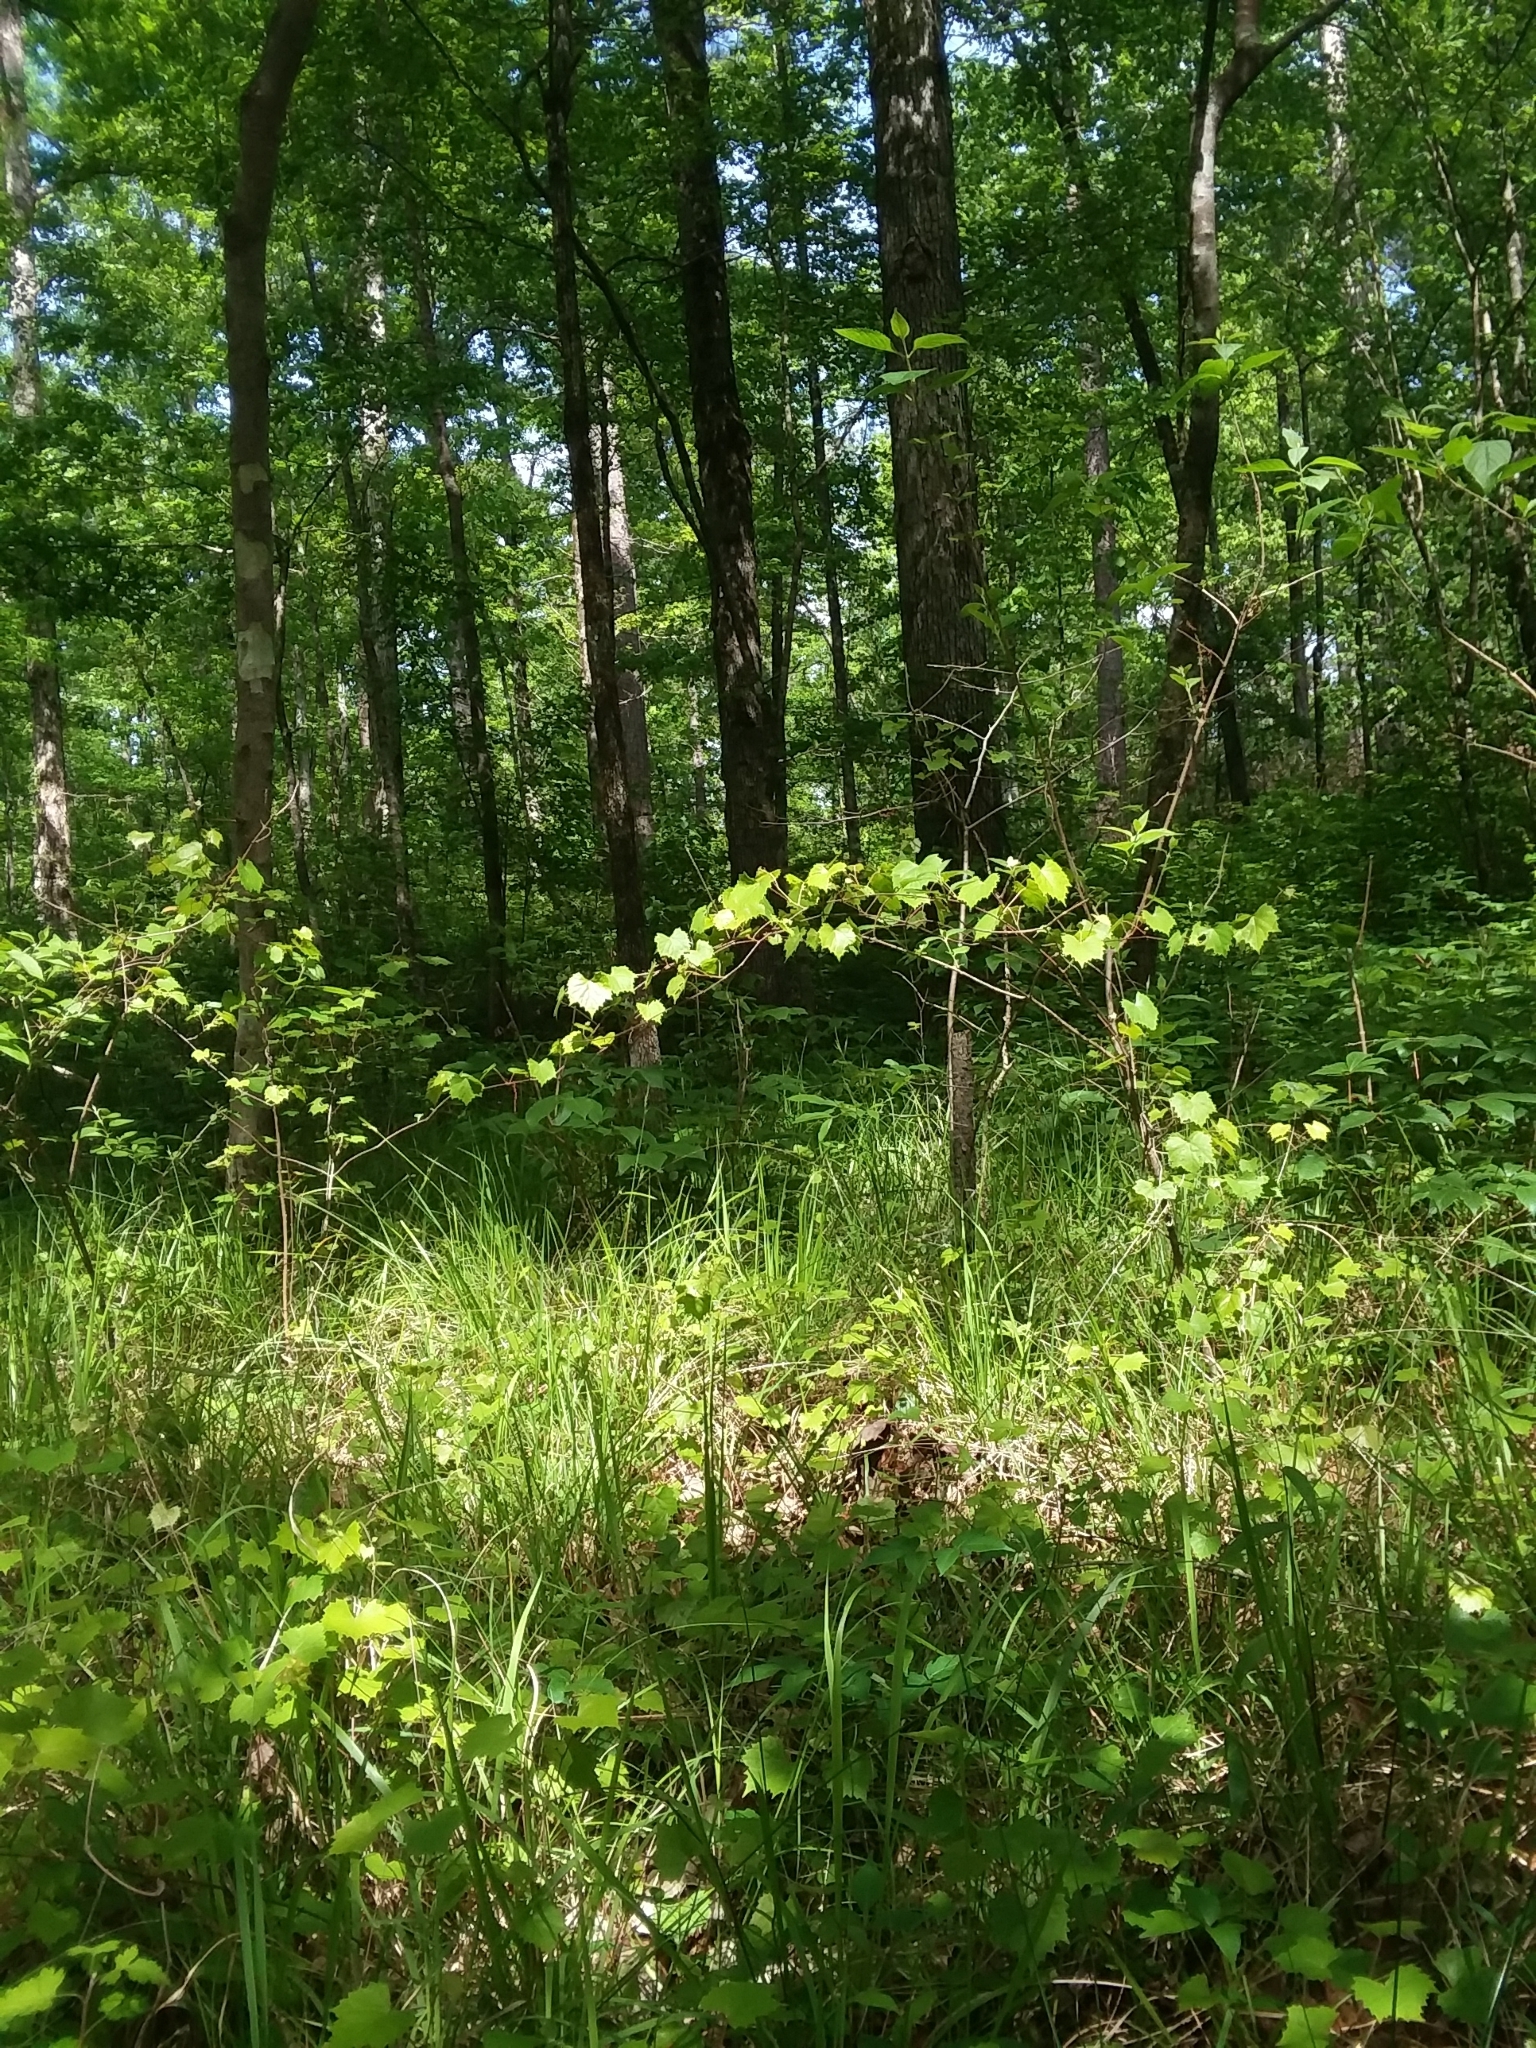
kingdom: Plantae
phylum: Tracheophyta
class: Liliopsida
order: Asparagales
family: Orchidaceae
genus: Spiranthes
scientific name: Spiranthes sylvatica
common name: Woodland lady's tresses
